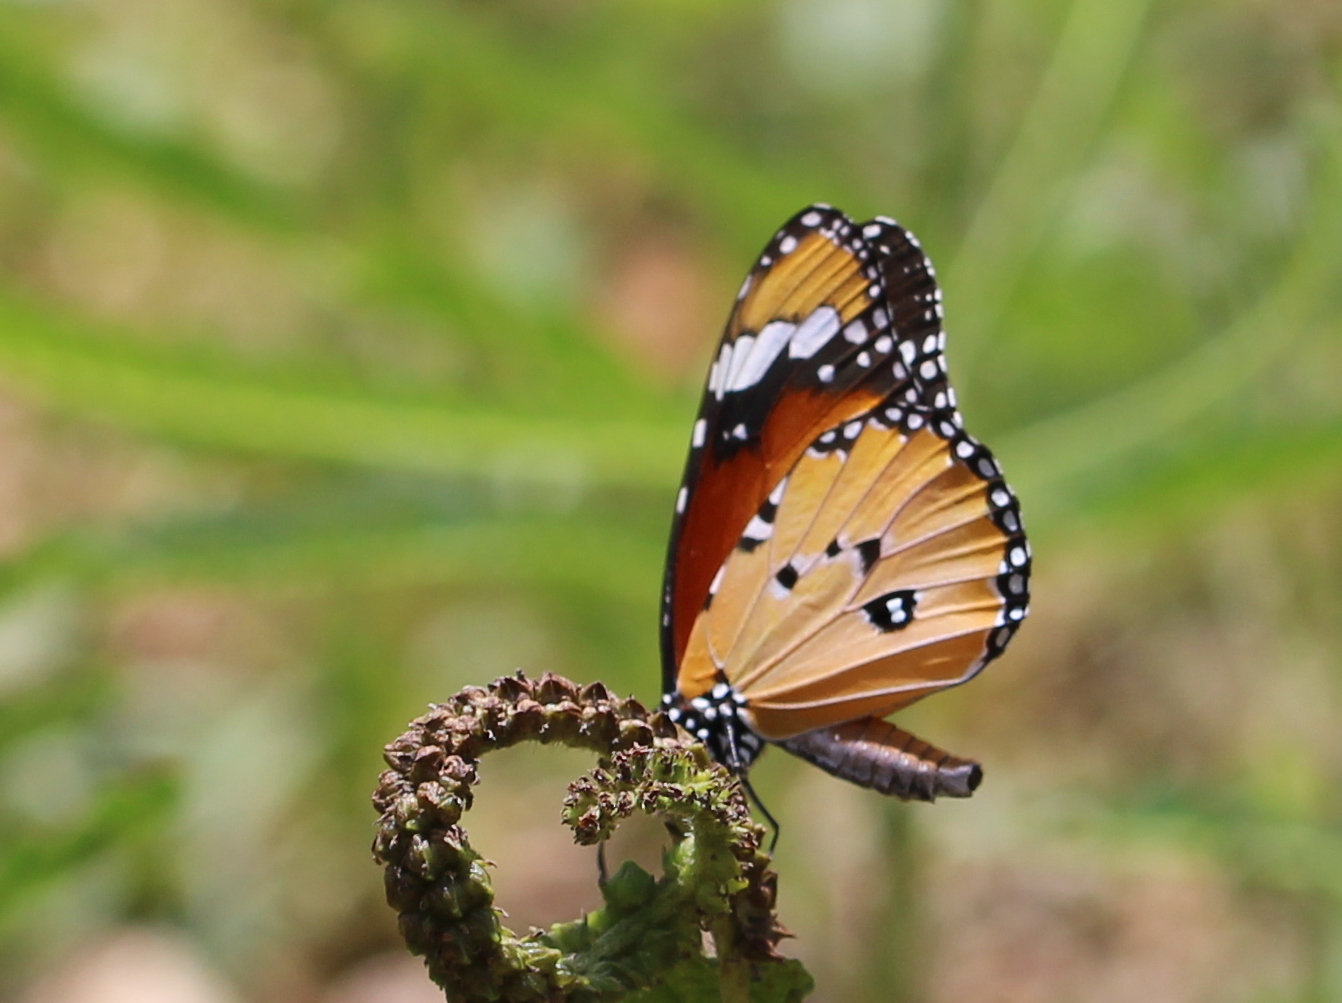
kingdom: Animalia
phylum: Arthropoda
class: Insecta
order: Lepidoptera
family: Nymphalidae
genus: Danaus
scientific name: Danaus chrysippus
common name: Plain tiger
